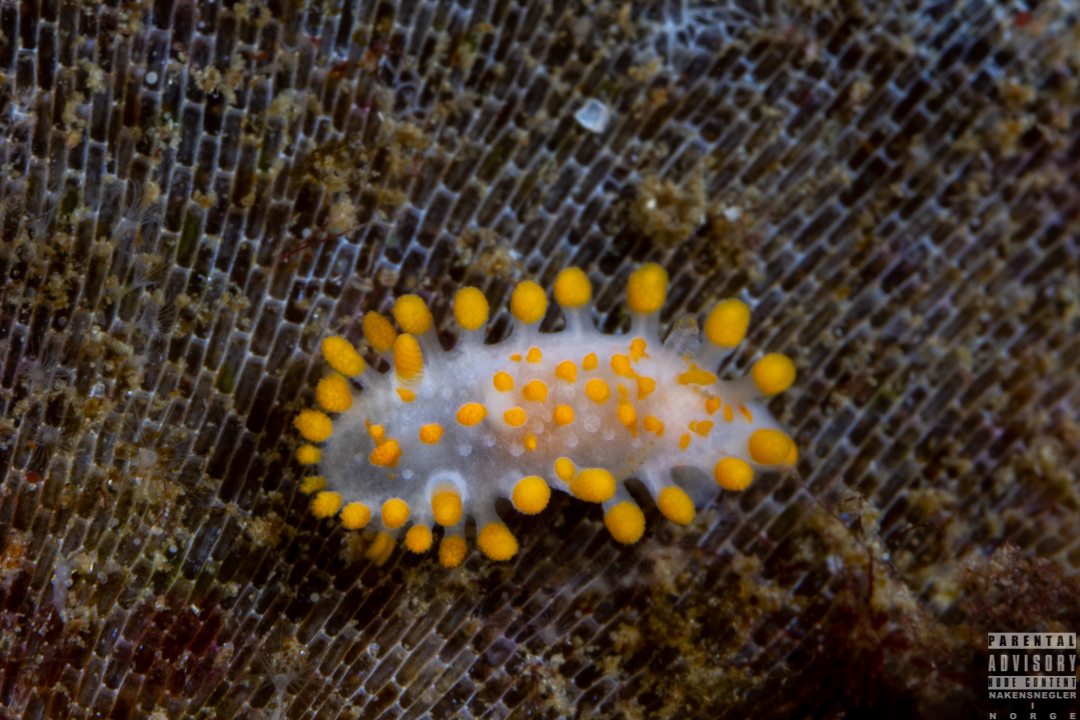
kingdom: Animalia
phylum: Mollusca
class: Gastropoda
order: Nudibranchia
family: Polyceridae
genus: Limacia
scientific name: Limacia clavigera
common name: Orange-clubbed sea slug
